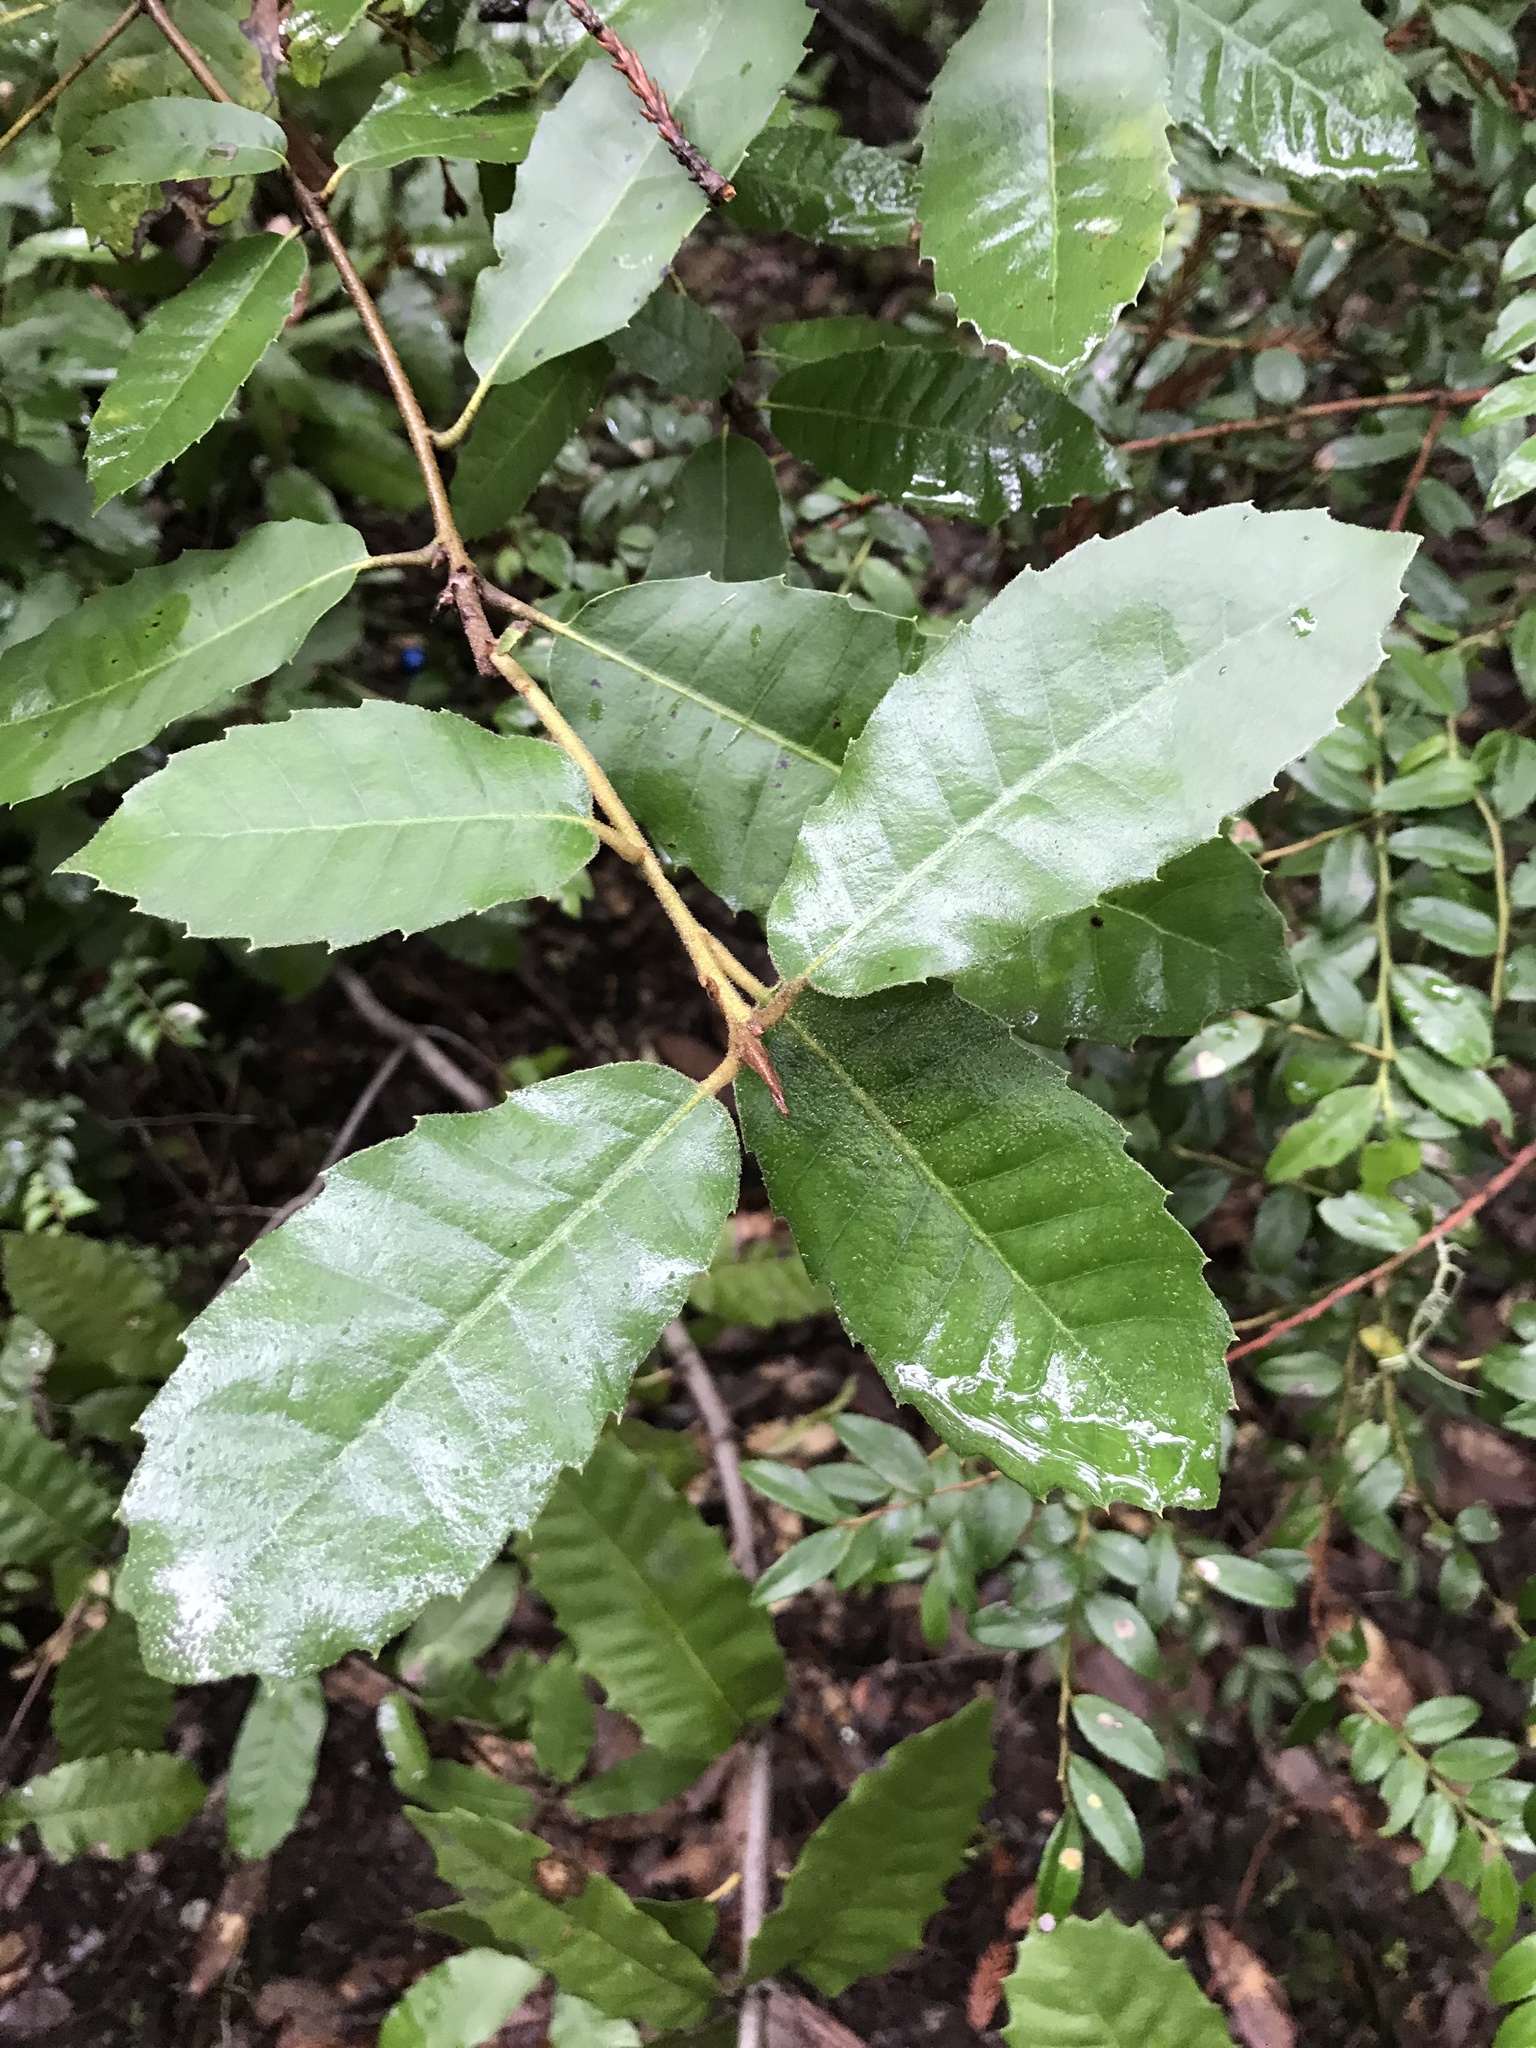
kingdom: Plantae
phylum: Tracheophyta
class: Magnoliopsida
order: Fagales
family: Fagaceae
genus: Notholithocarpus
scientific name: Notholithocarpus densiflorus
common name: Tan bark oak
